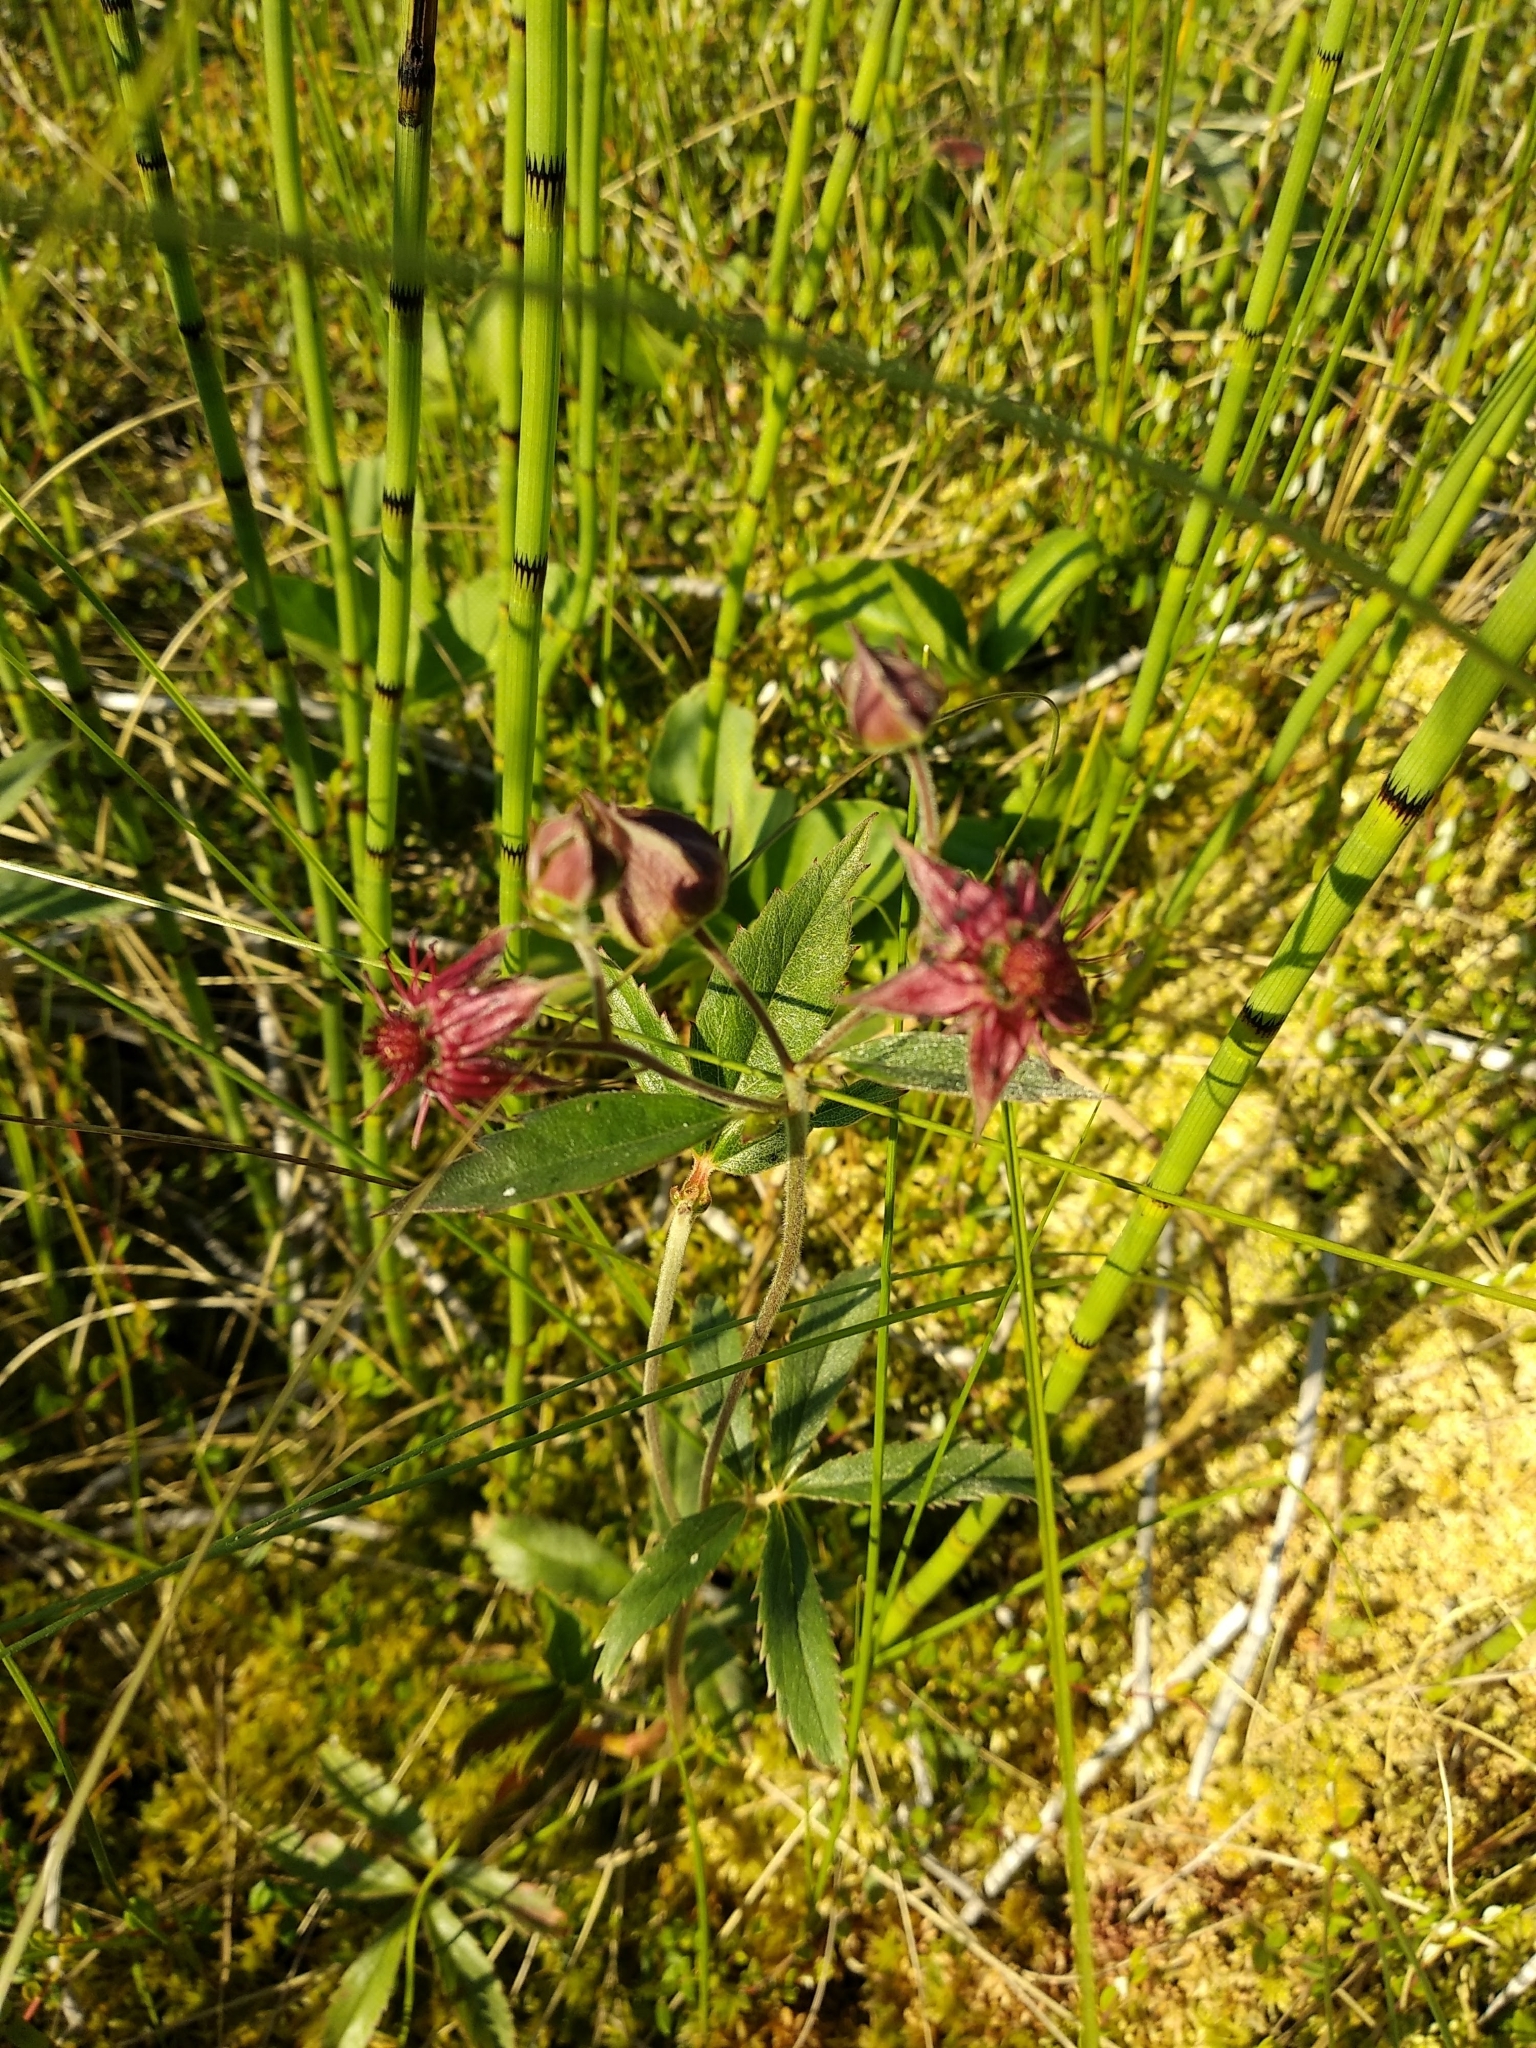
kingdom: Plantae
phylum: Tracheophyta
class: Magnoliopsida
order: Rosales
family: Rosaceae
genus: Comarum
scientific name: Comarum palustre
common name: Marsh cinquefoil
